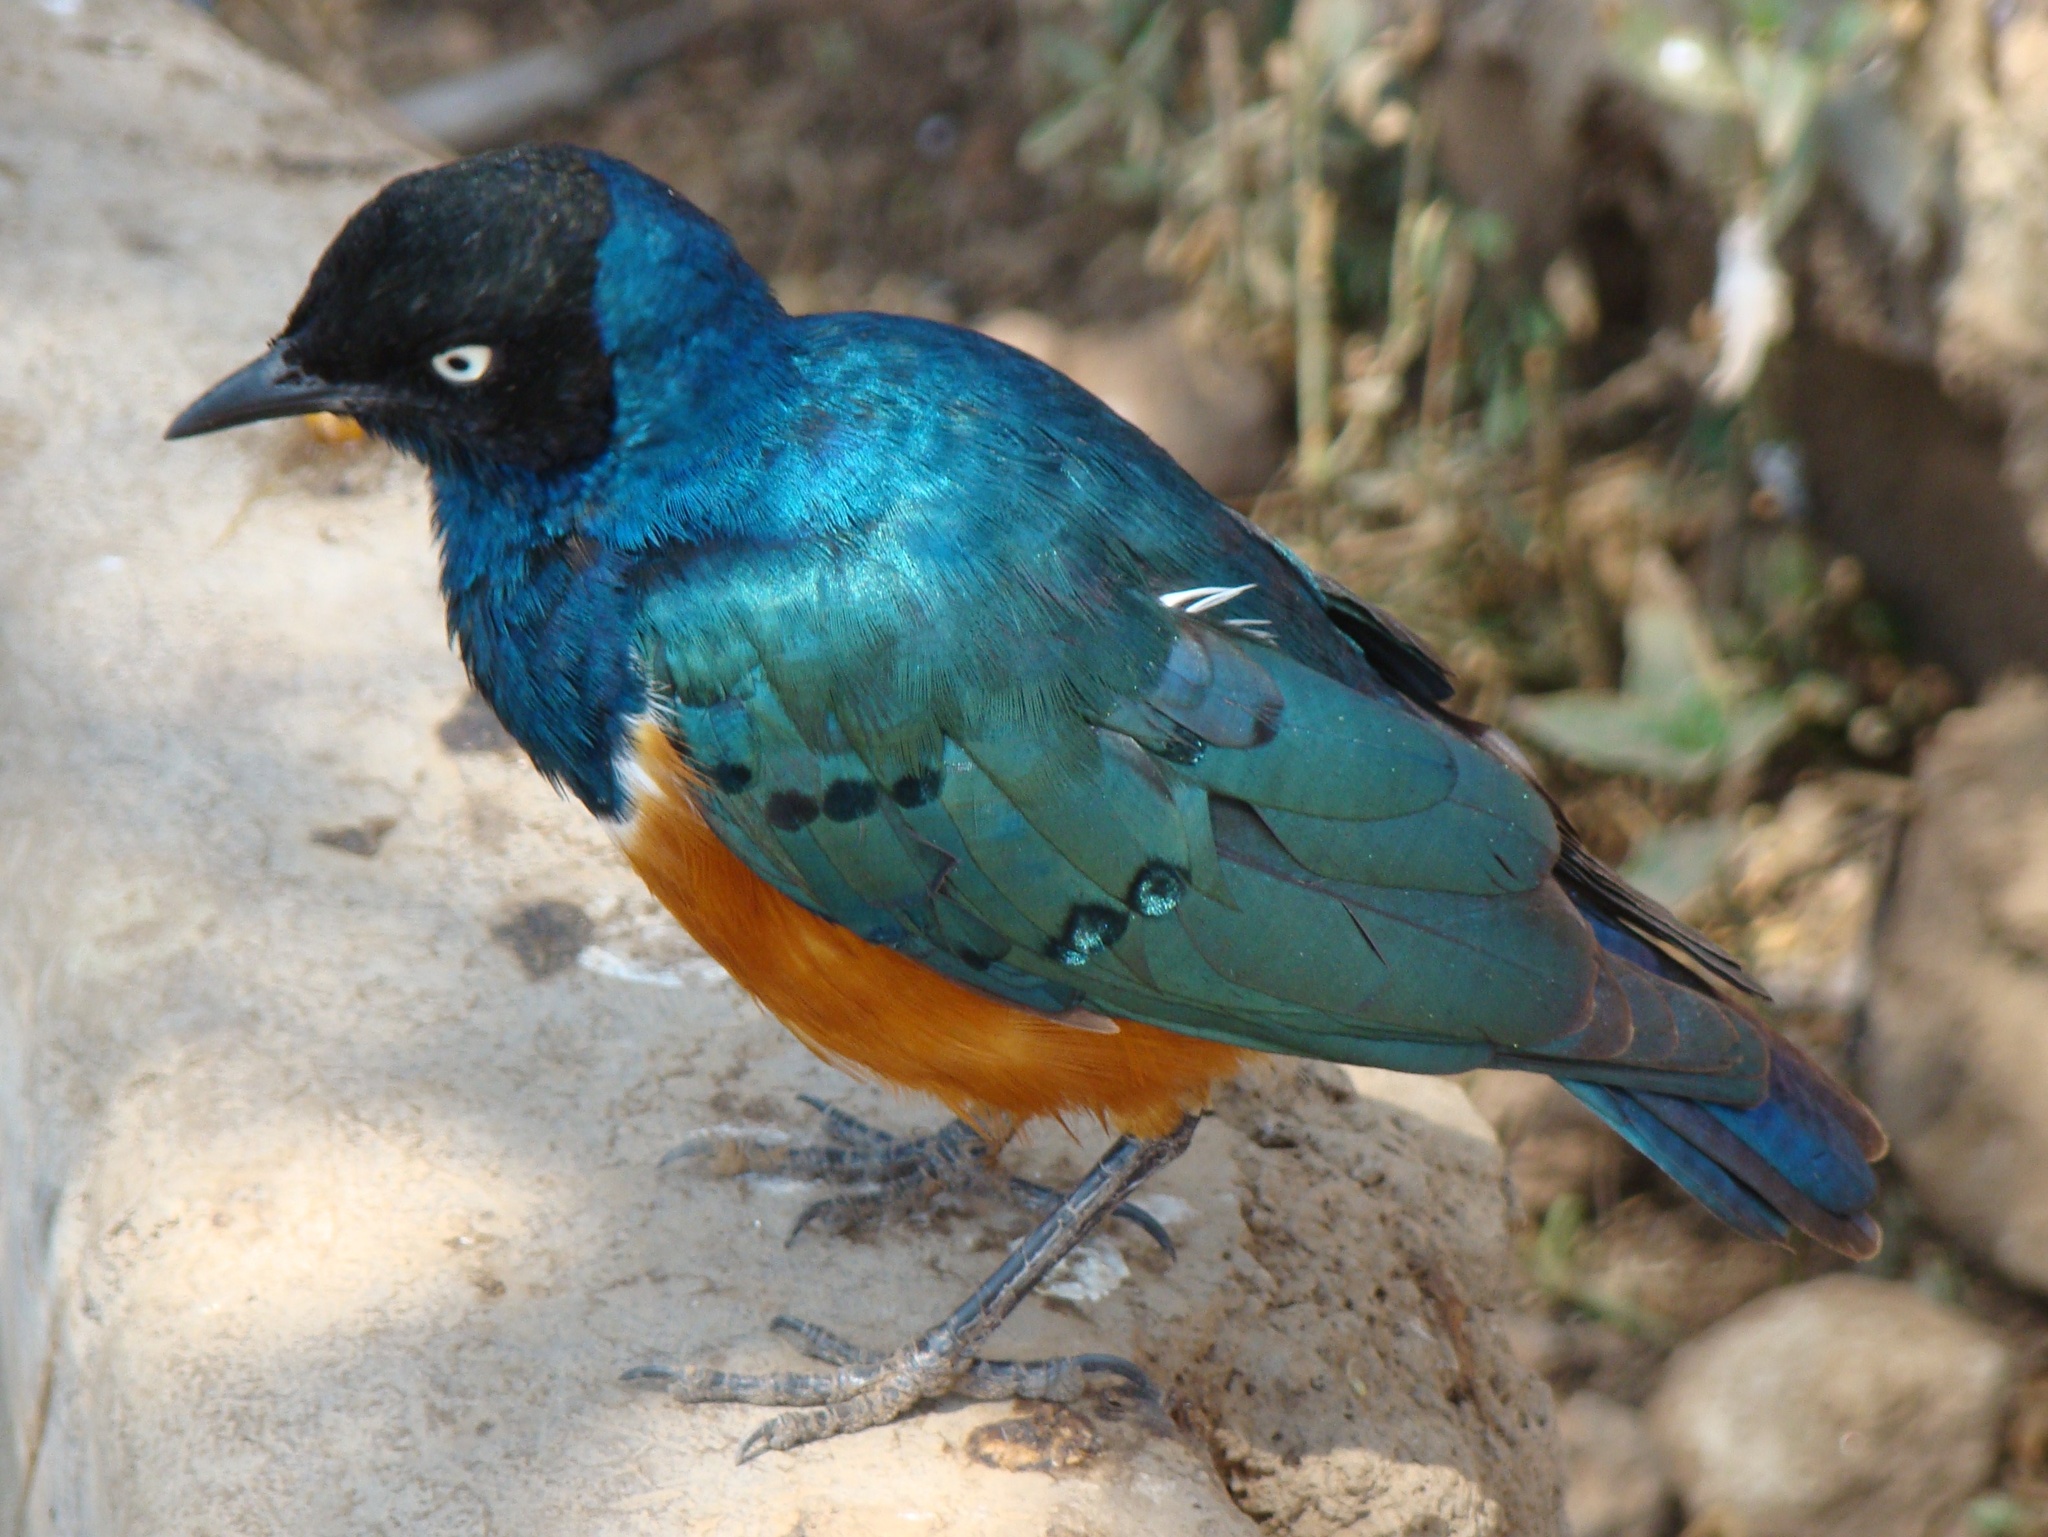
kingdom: Animalia
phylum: Chordata
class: Aves
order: Passeriformes
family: Sturnidae
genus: Lamprotornis
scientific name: Lamprotornis superbus
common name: Superb starling
